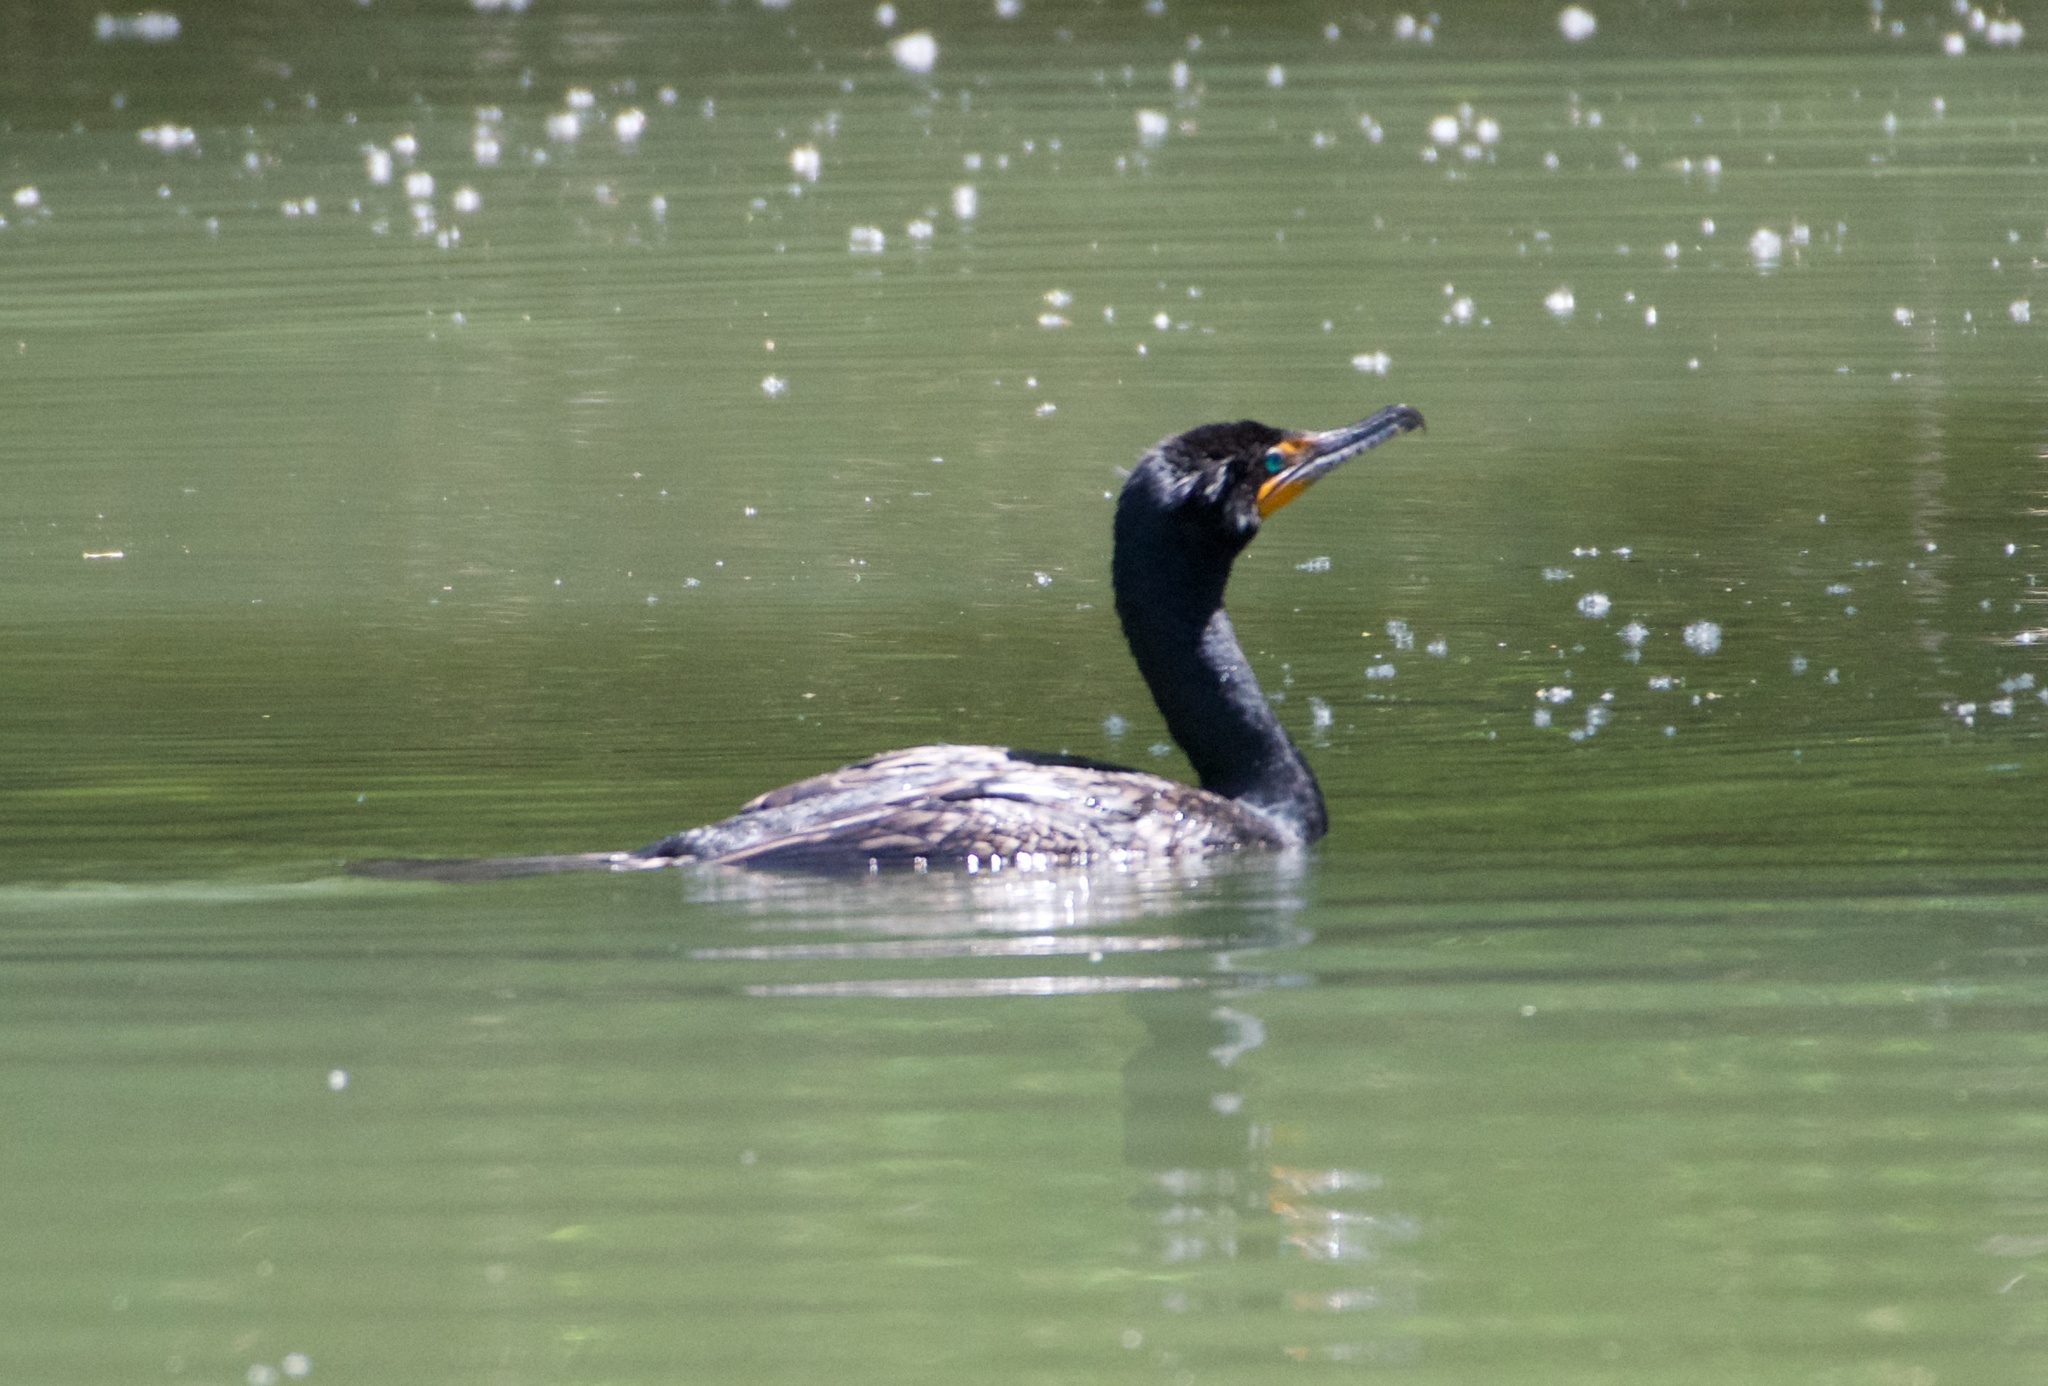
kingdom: Animalia
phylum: Chordata
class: Aves
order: Suliformes
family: Phalacrocoracidae
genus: Phalacrocorax
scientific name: Phalacrocorax auritus
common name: Double-crested cormorant
